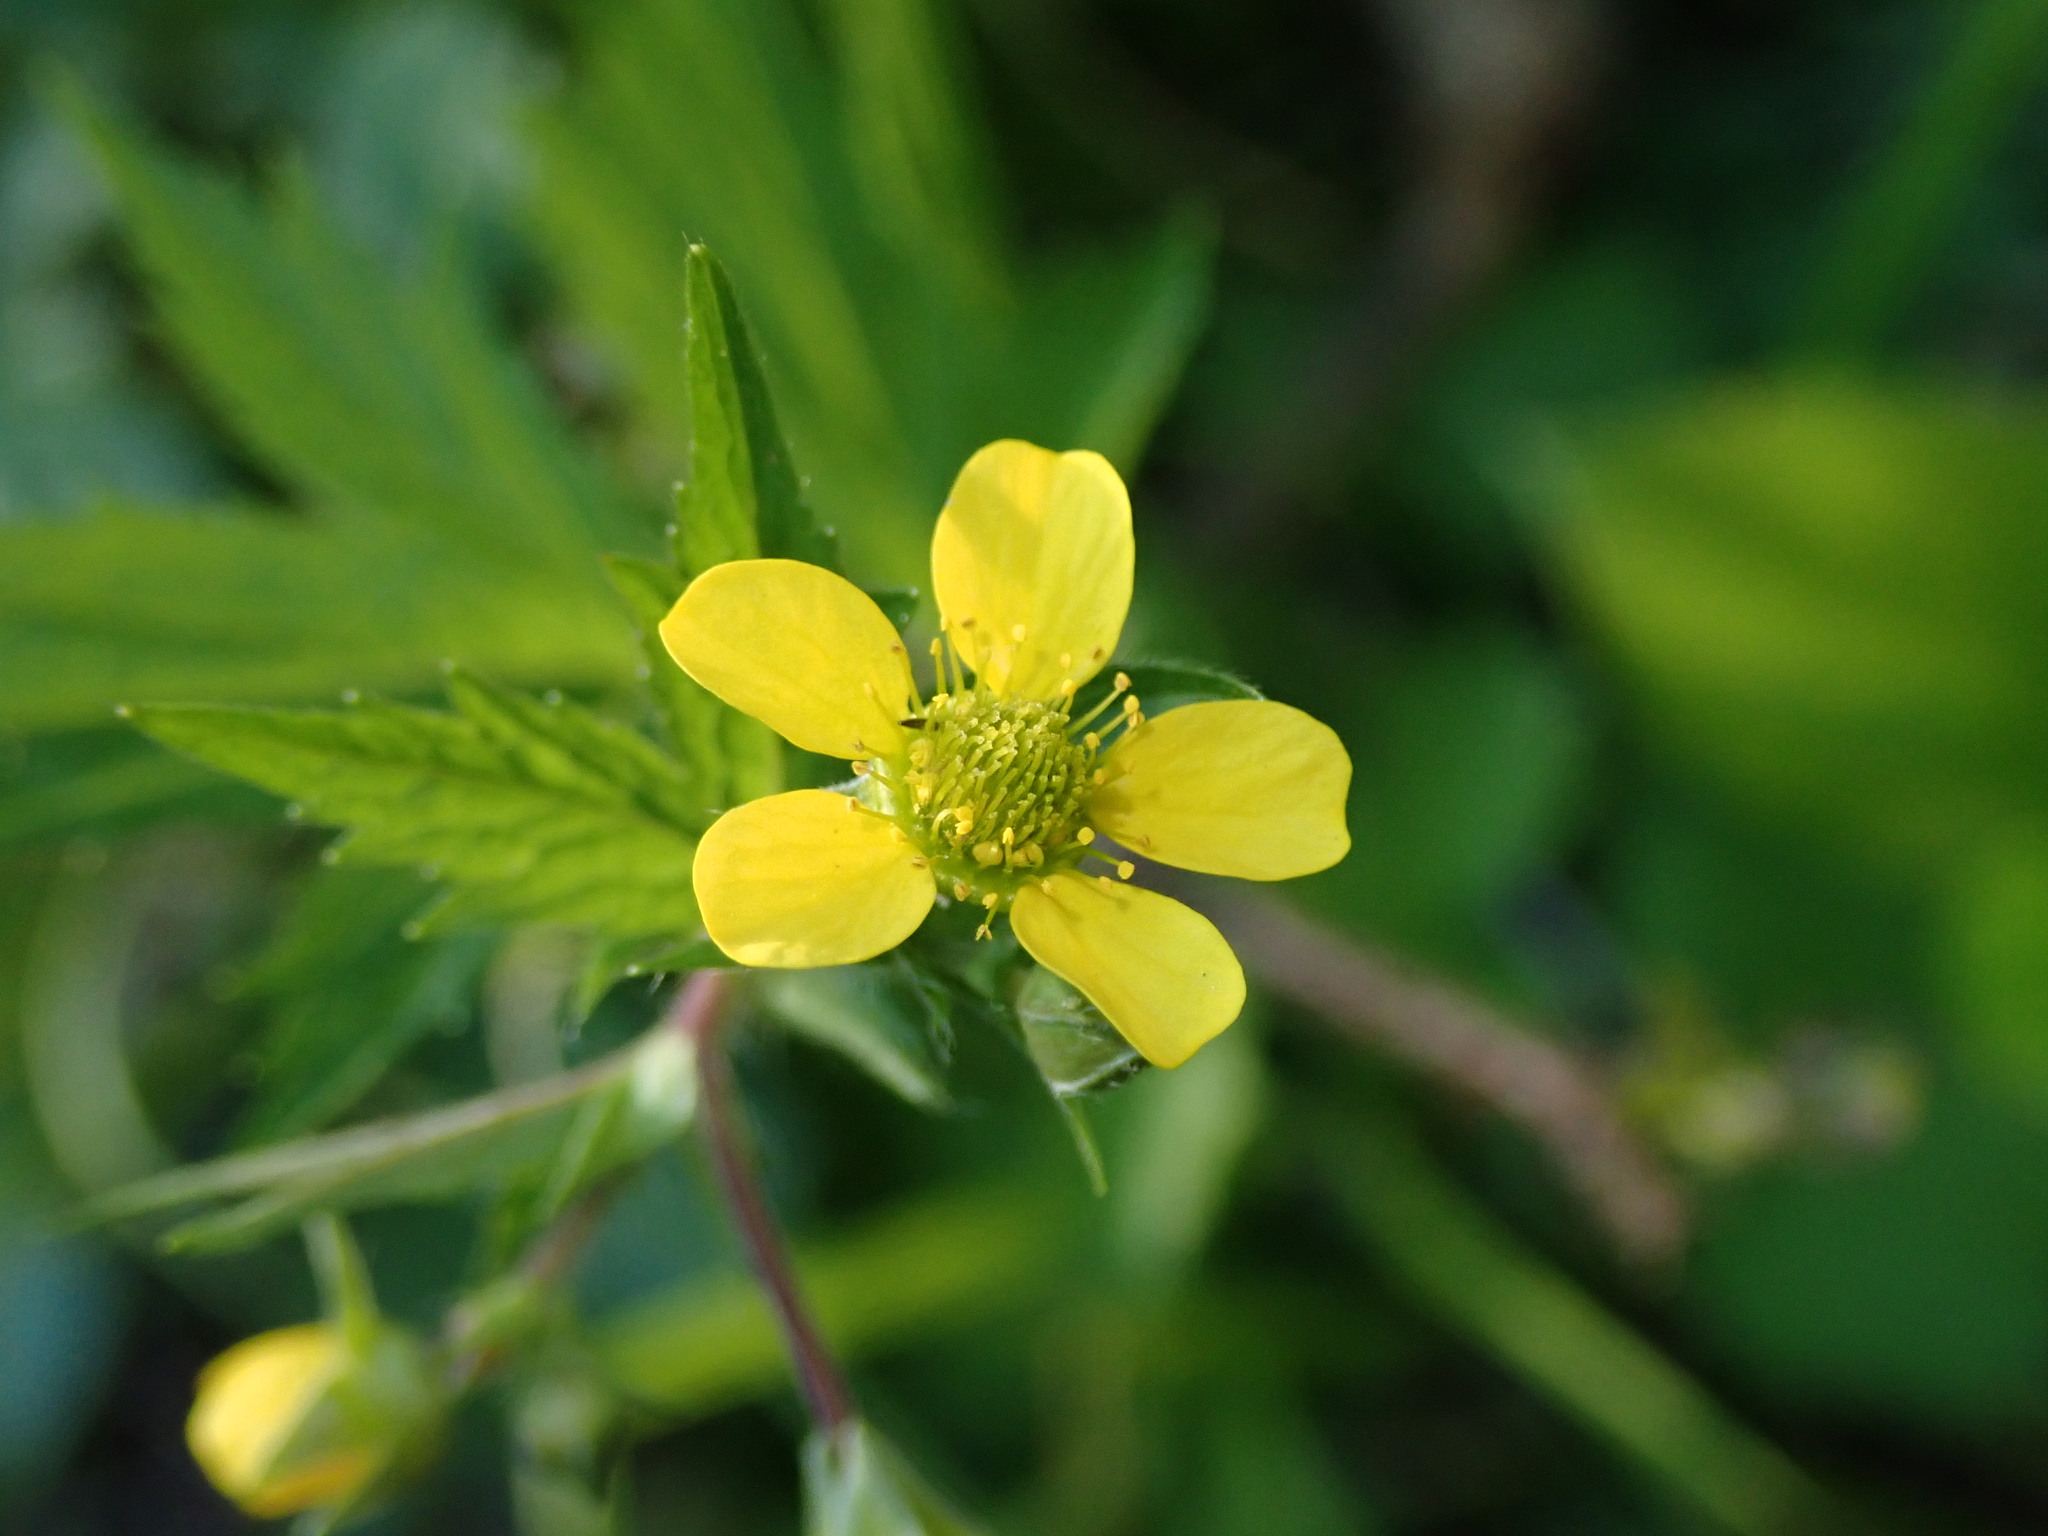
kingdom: Plantae
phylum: Tracheophyta
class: Magnoliopsida
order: Rosales
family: Rosaceae
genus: Geum
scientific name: Geum macrophyllum
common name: Large-leaved avens
